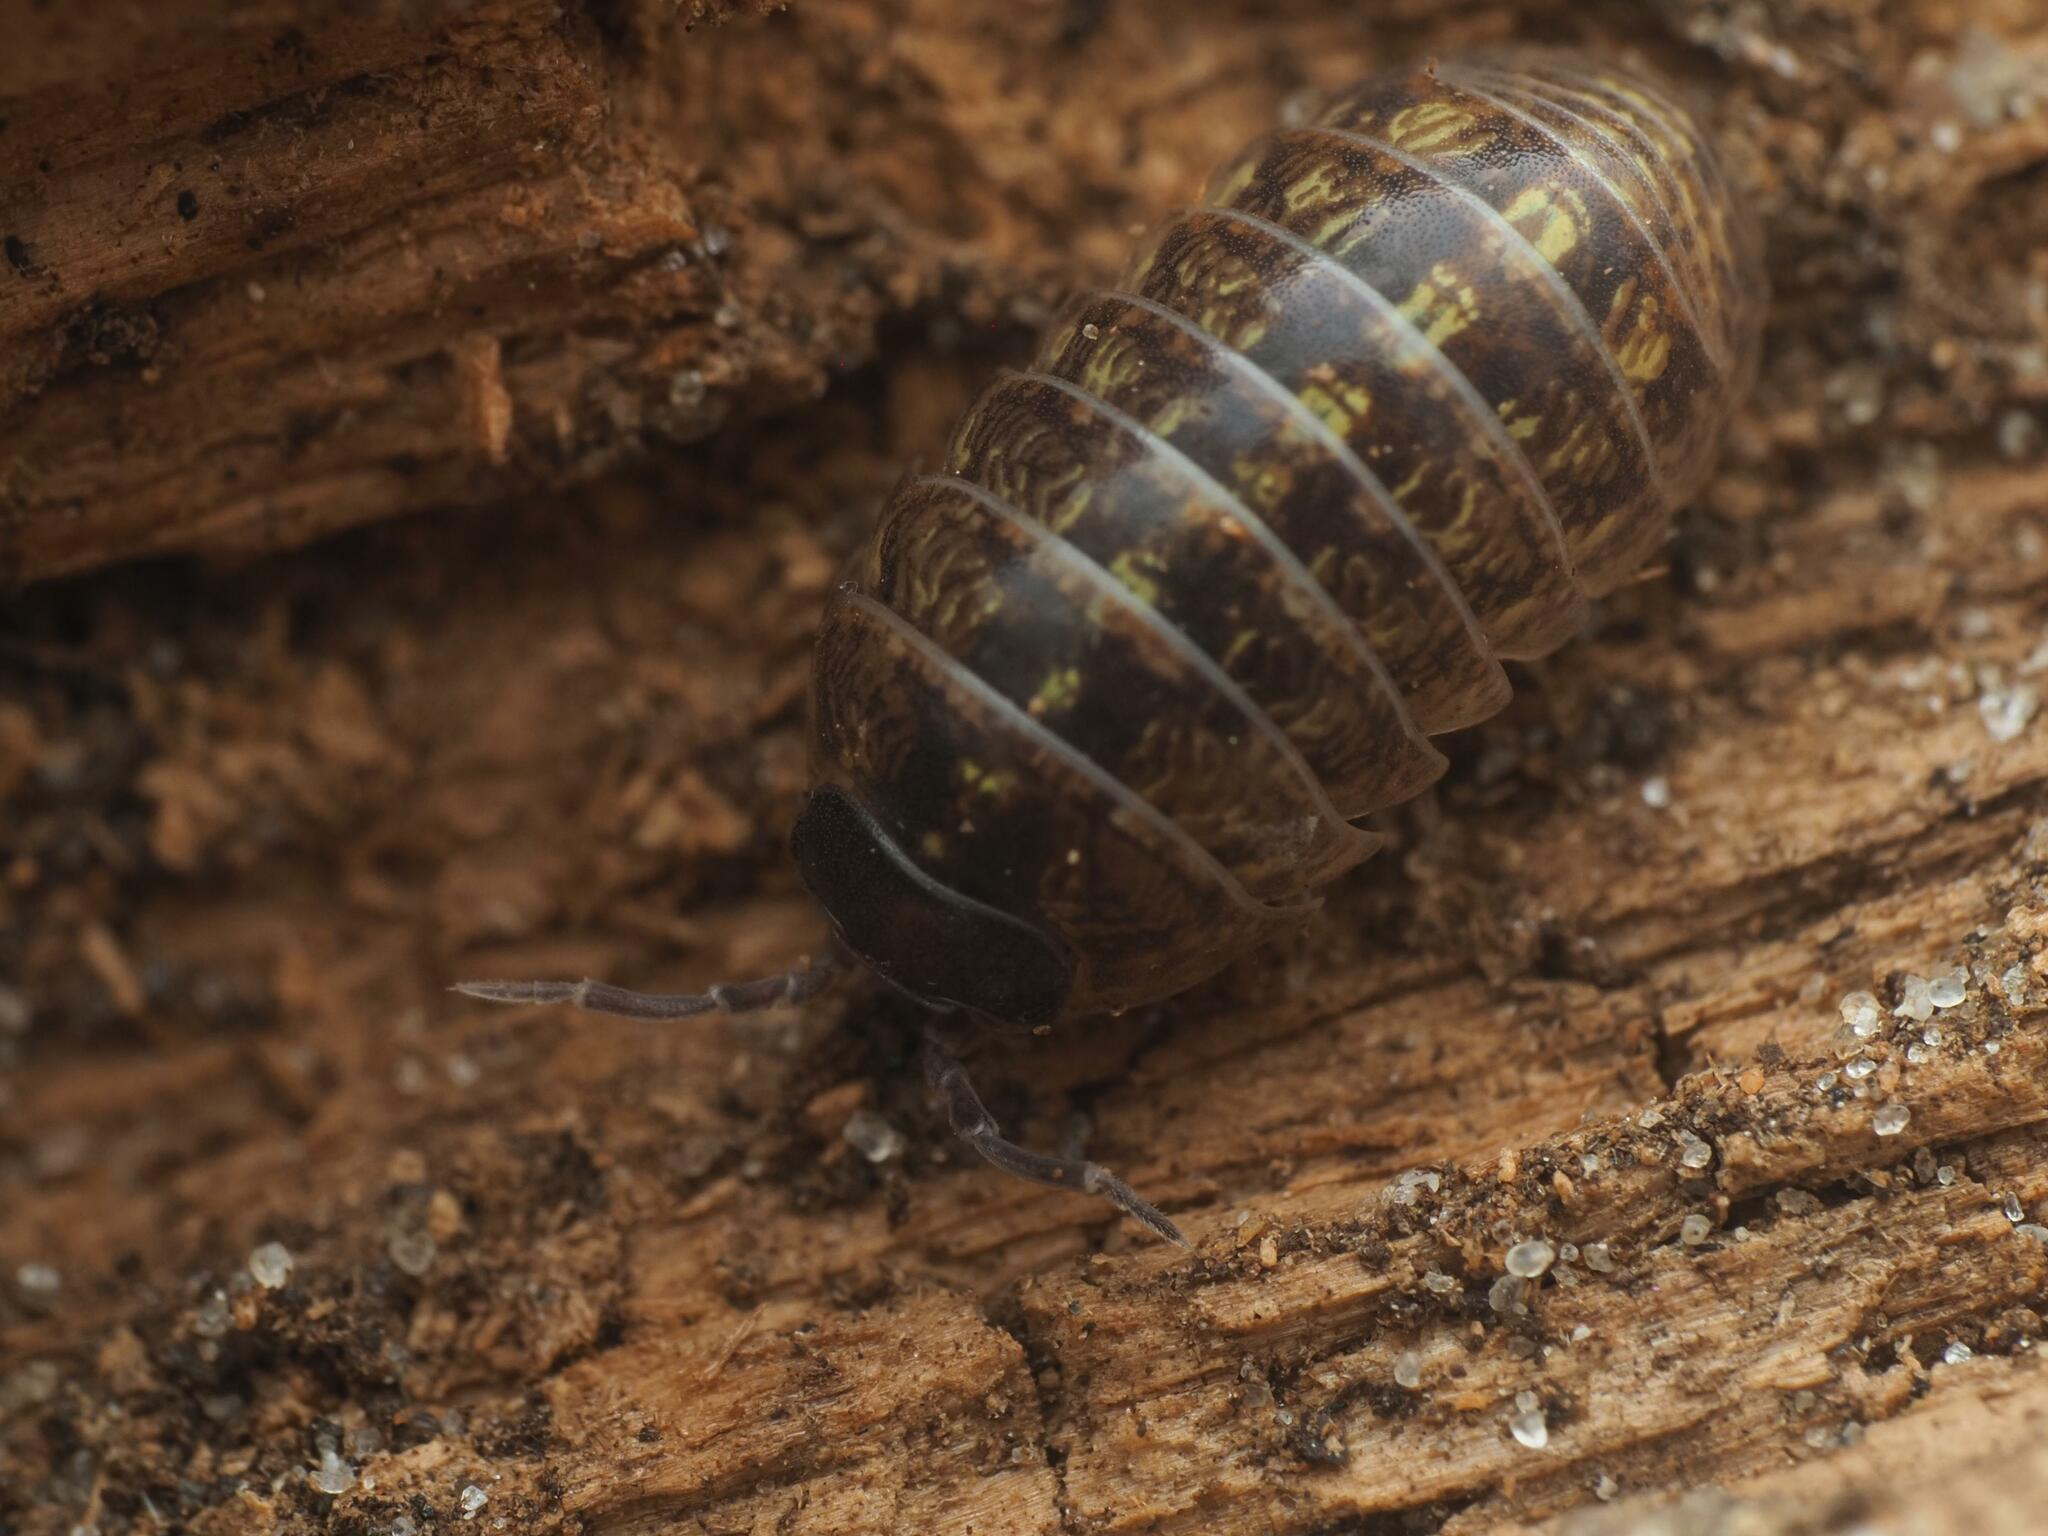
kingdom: Animalia
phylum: Arthropoda
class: Malacostraca
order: Isopoda
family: Armadillidiidae
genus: Armadillidium
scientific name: Armadillidium vulgare
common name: Common pill woodlouse
